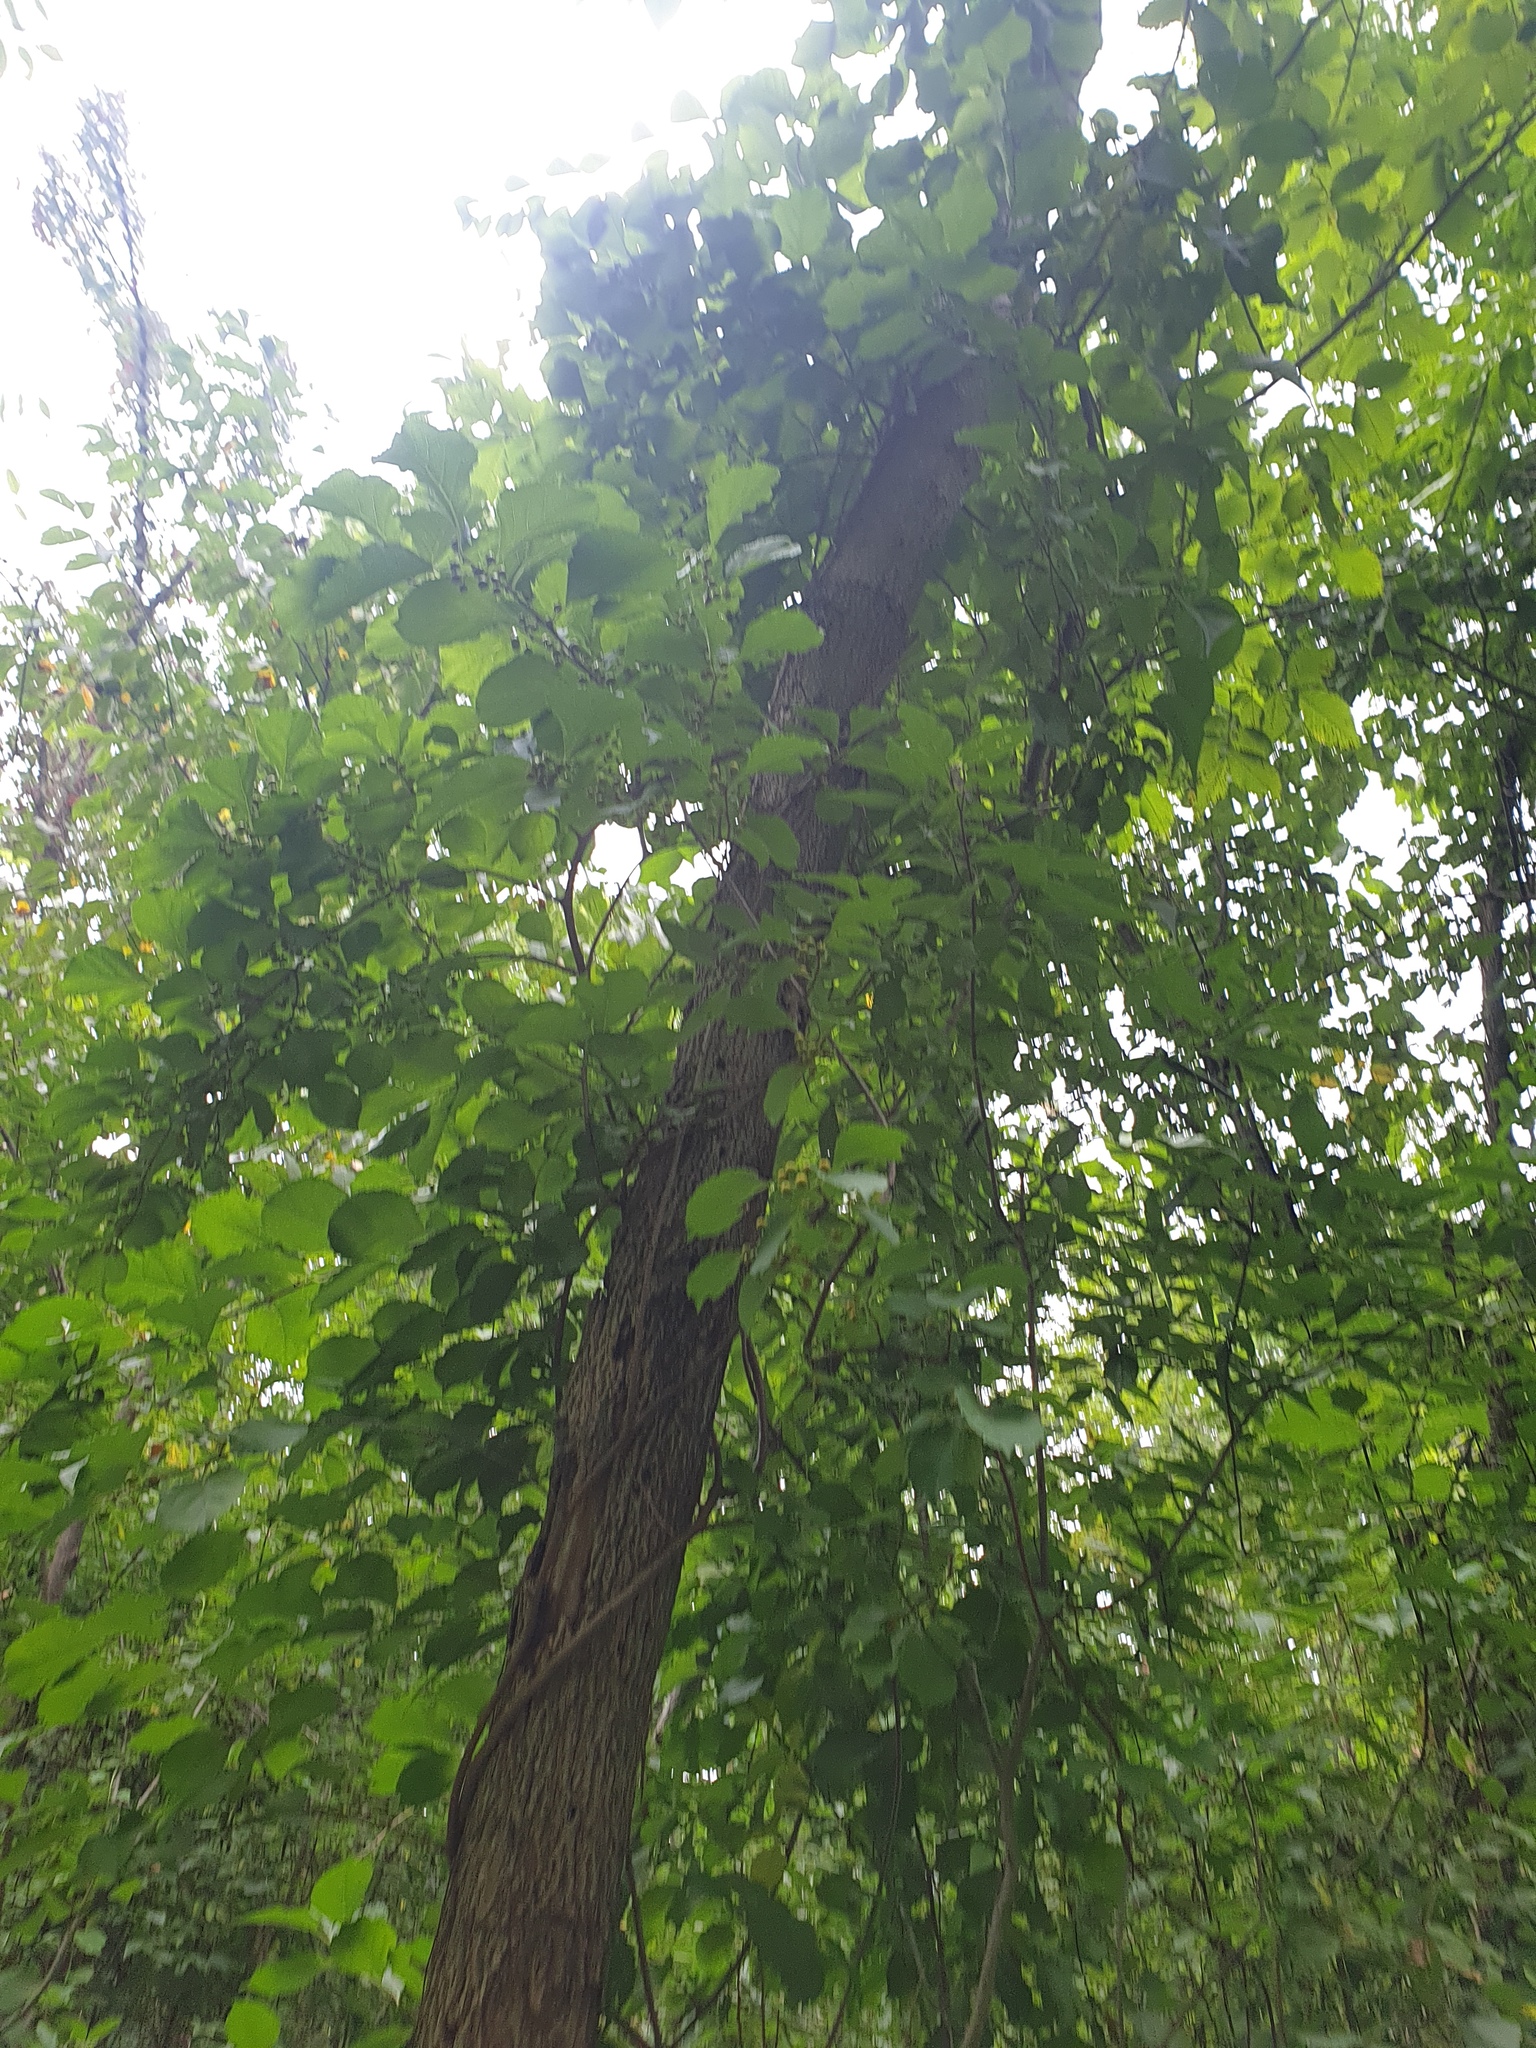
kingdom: Plantae
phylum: Tracheophyta
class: Magnoliopsida
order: Celastrales
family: Celastraceae
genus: Celastrus
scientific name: Celastrus orbiculatus
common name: Oriental bittersweet
